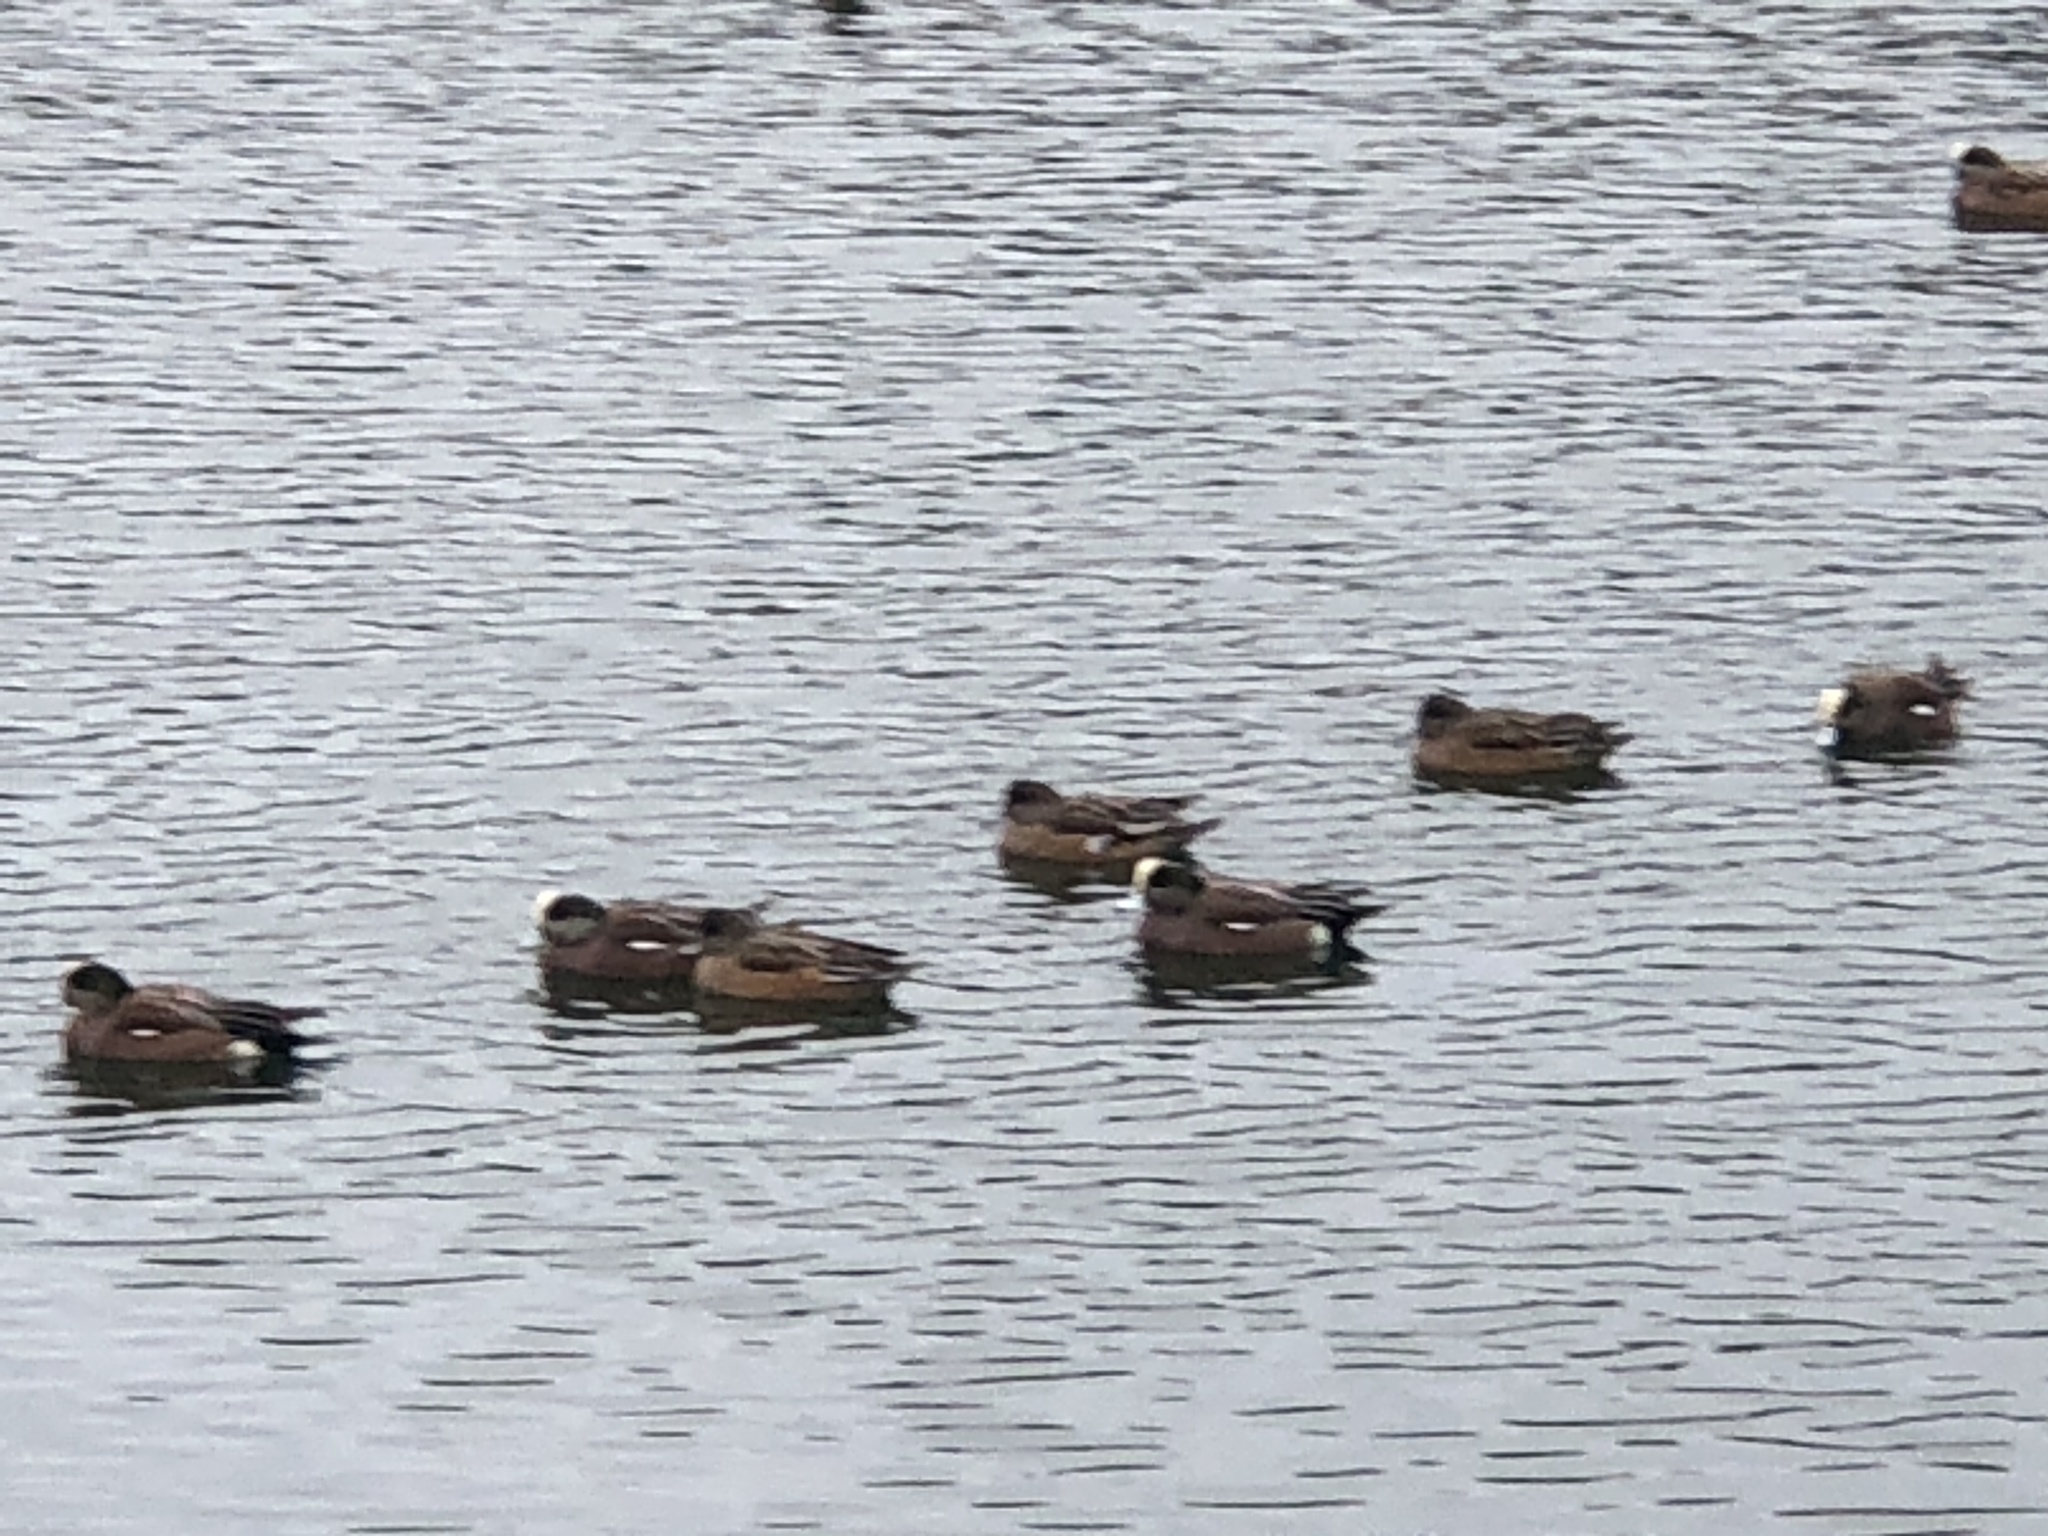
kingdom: Animalia
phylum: Chordata
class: Aves
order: Anseriformes
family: Anatidae
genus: Mareca
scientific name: Mareca americana
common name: American wigeon
